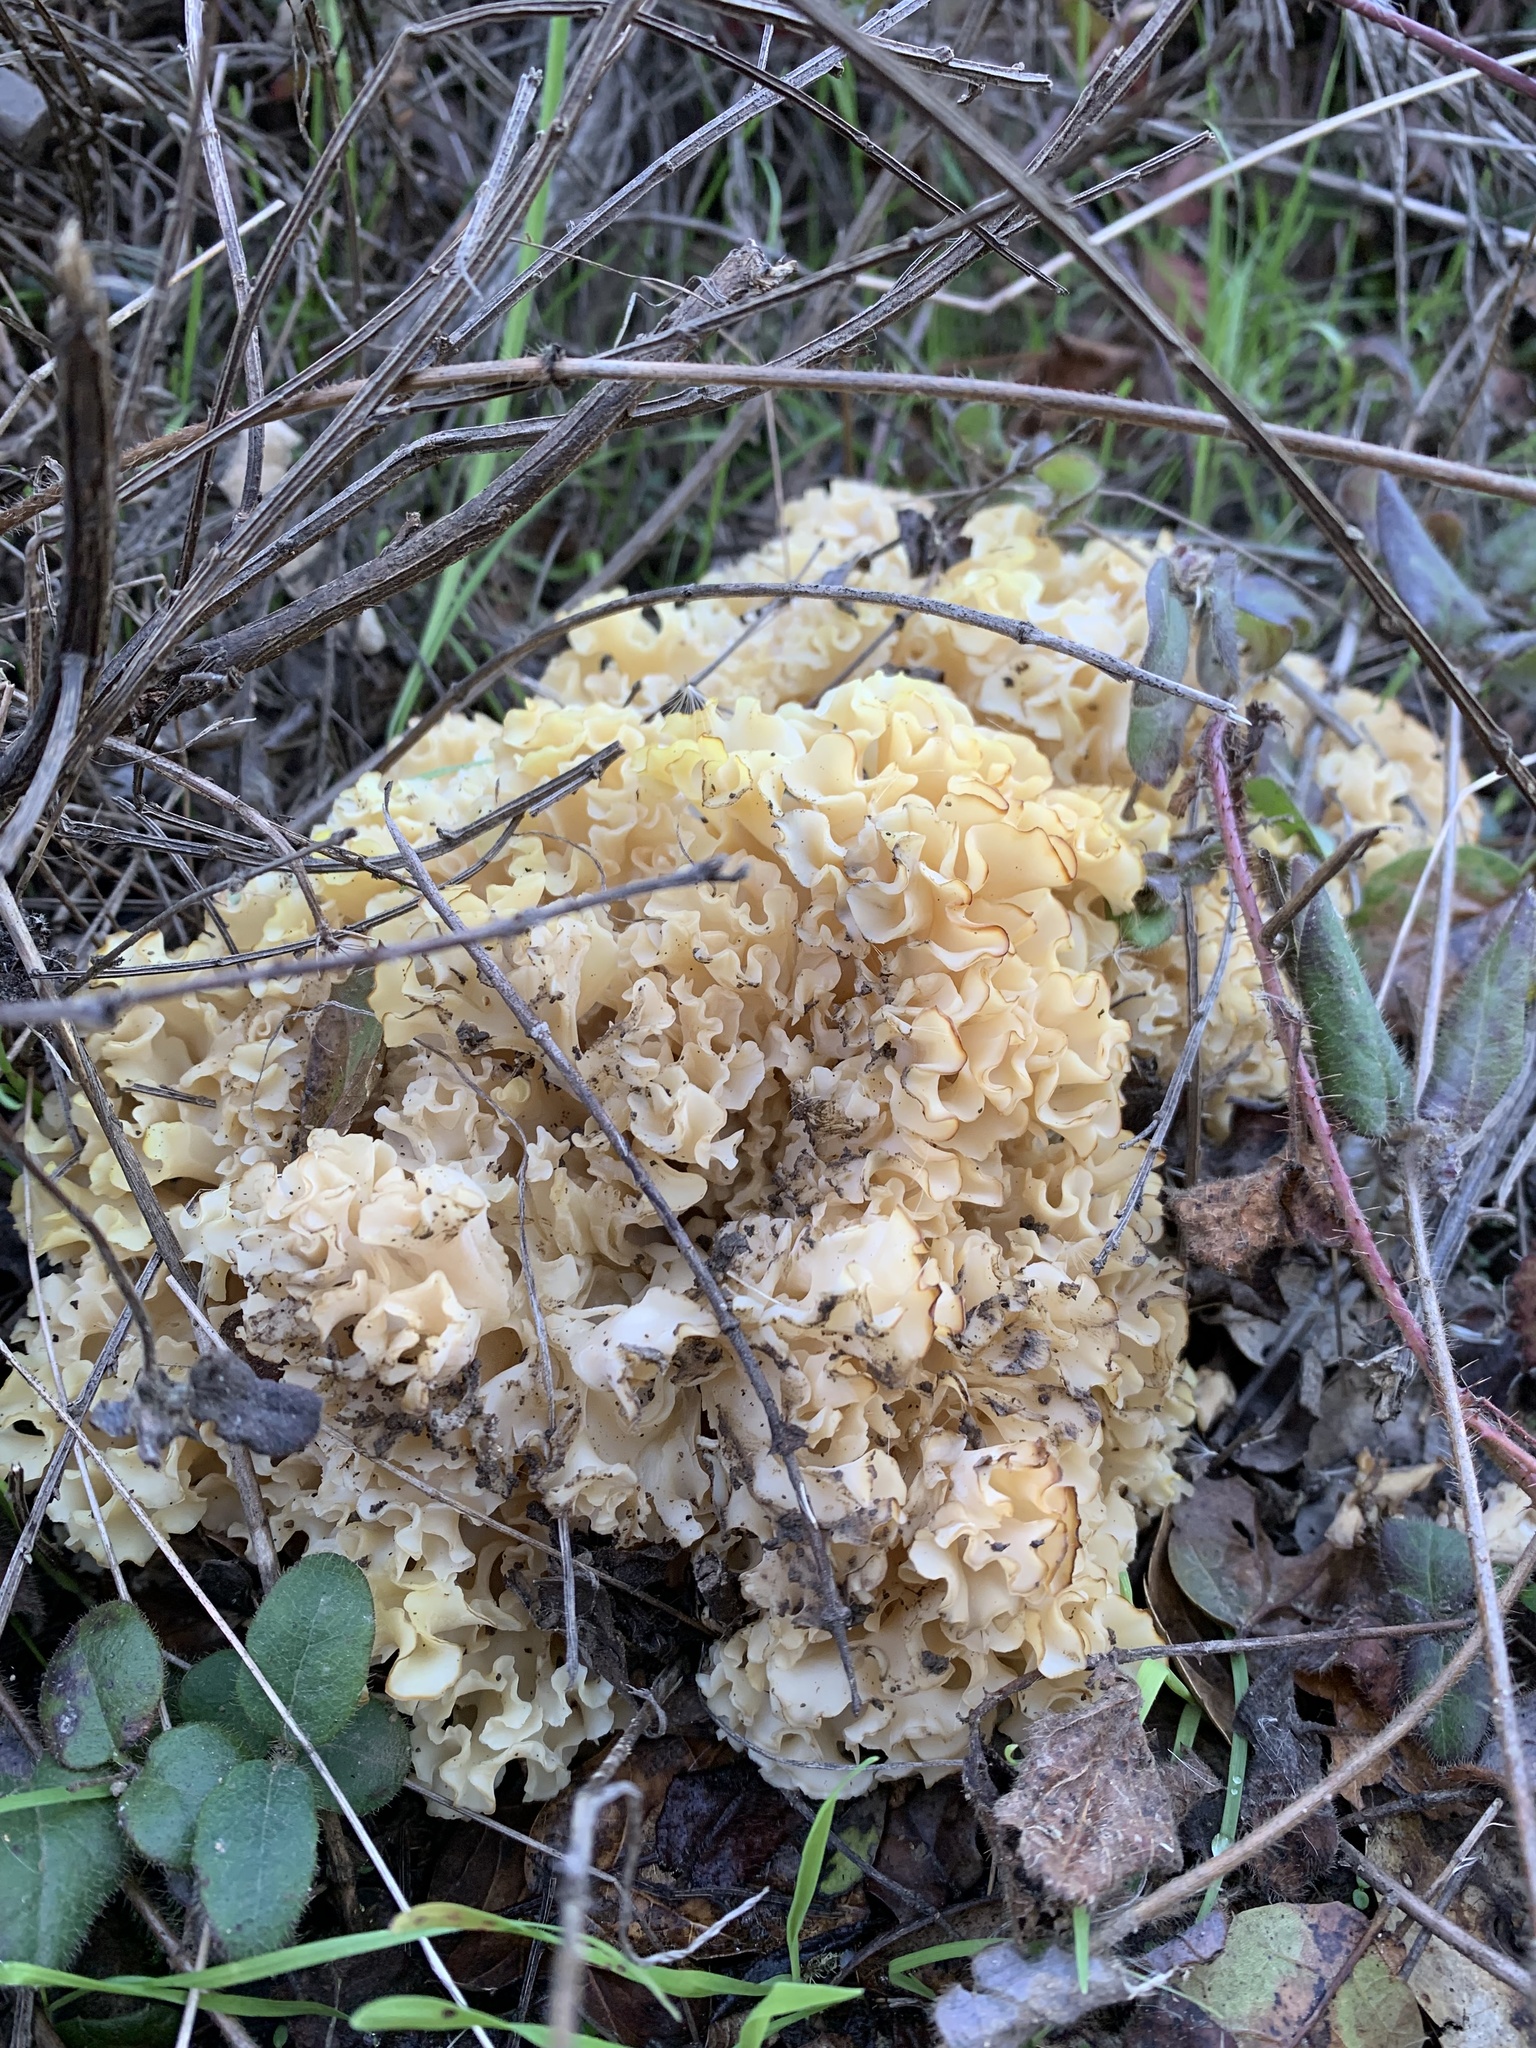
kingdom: Fungi
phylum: Basidiomycota
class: Agaricomycetes
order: Polyporales
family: Sparassidaceae
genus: Sparassis
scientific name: Sparassis radicata
